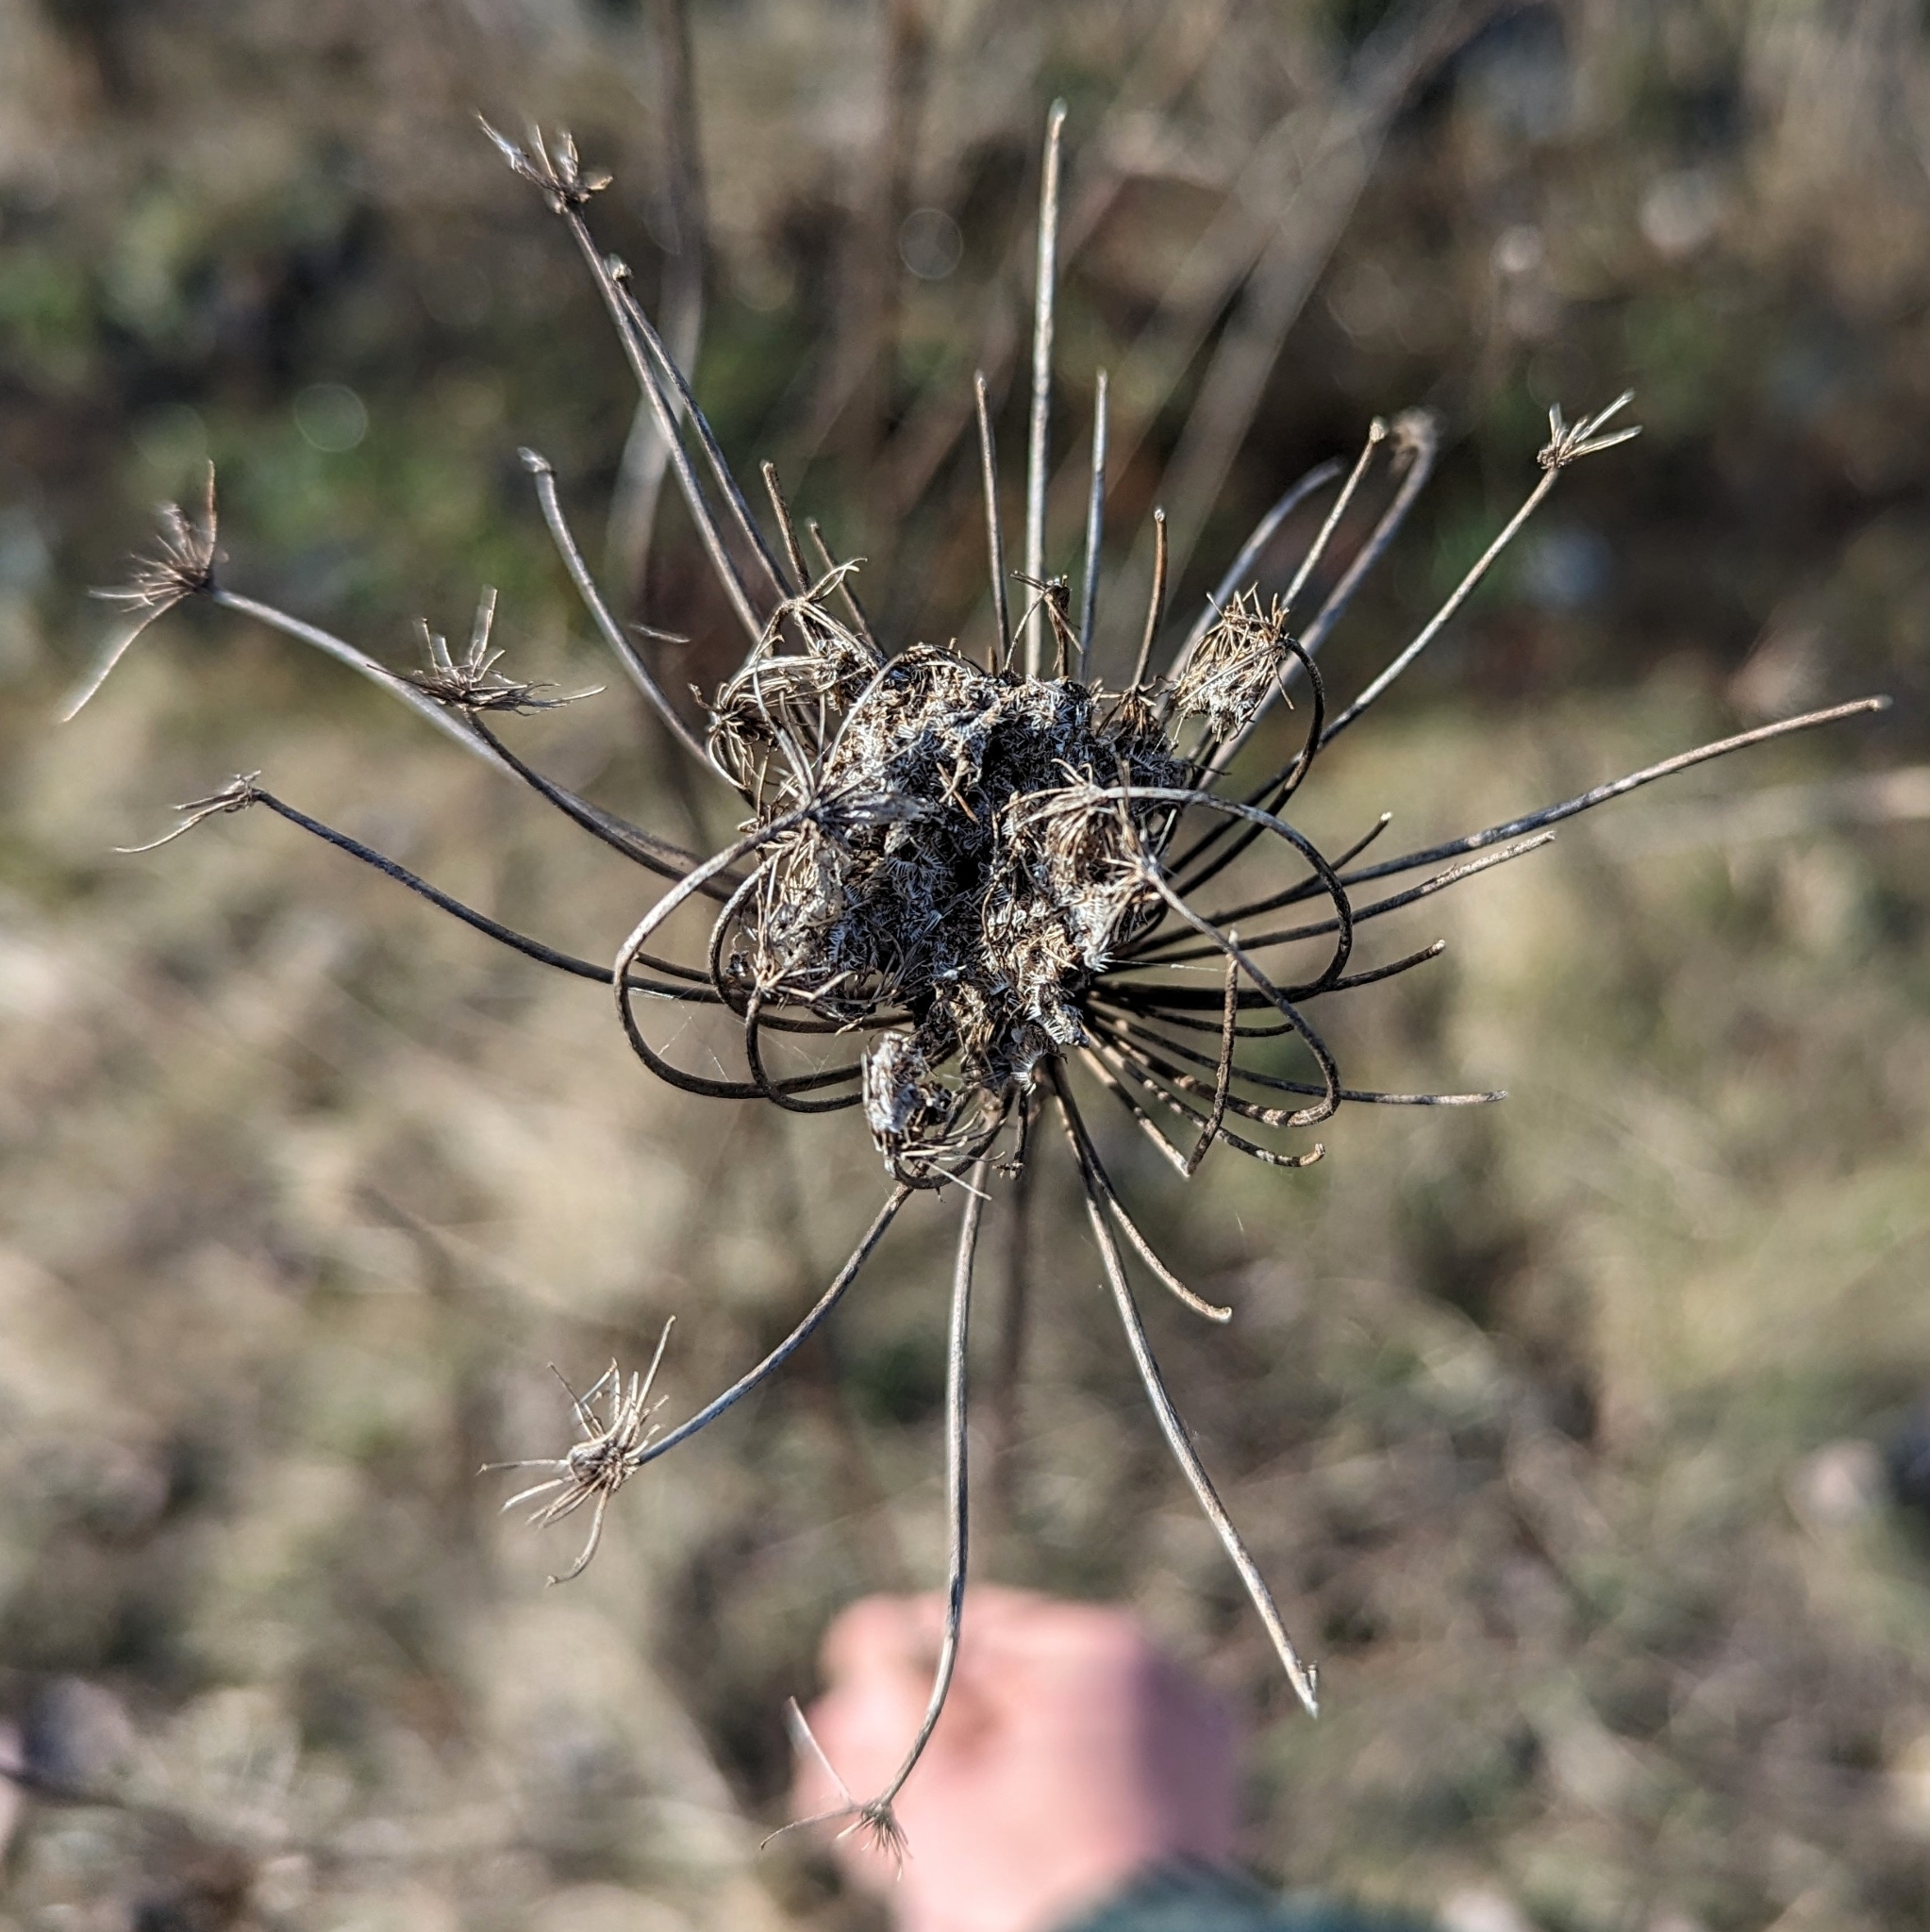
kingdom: Plantae
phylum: Tracheophyta
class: Magnoliopsida
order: Apiales
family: Apiaceae
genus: Daucus
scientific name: Daucus carota
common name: Wild carrot
